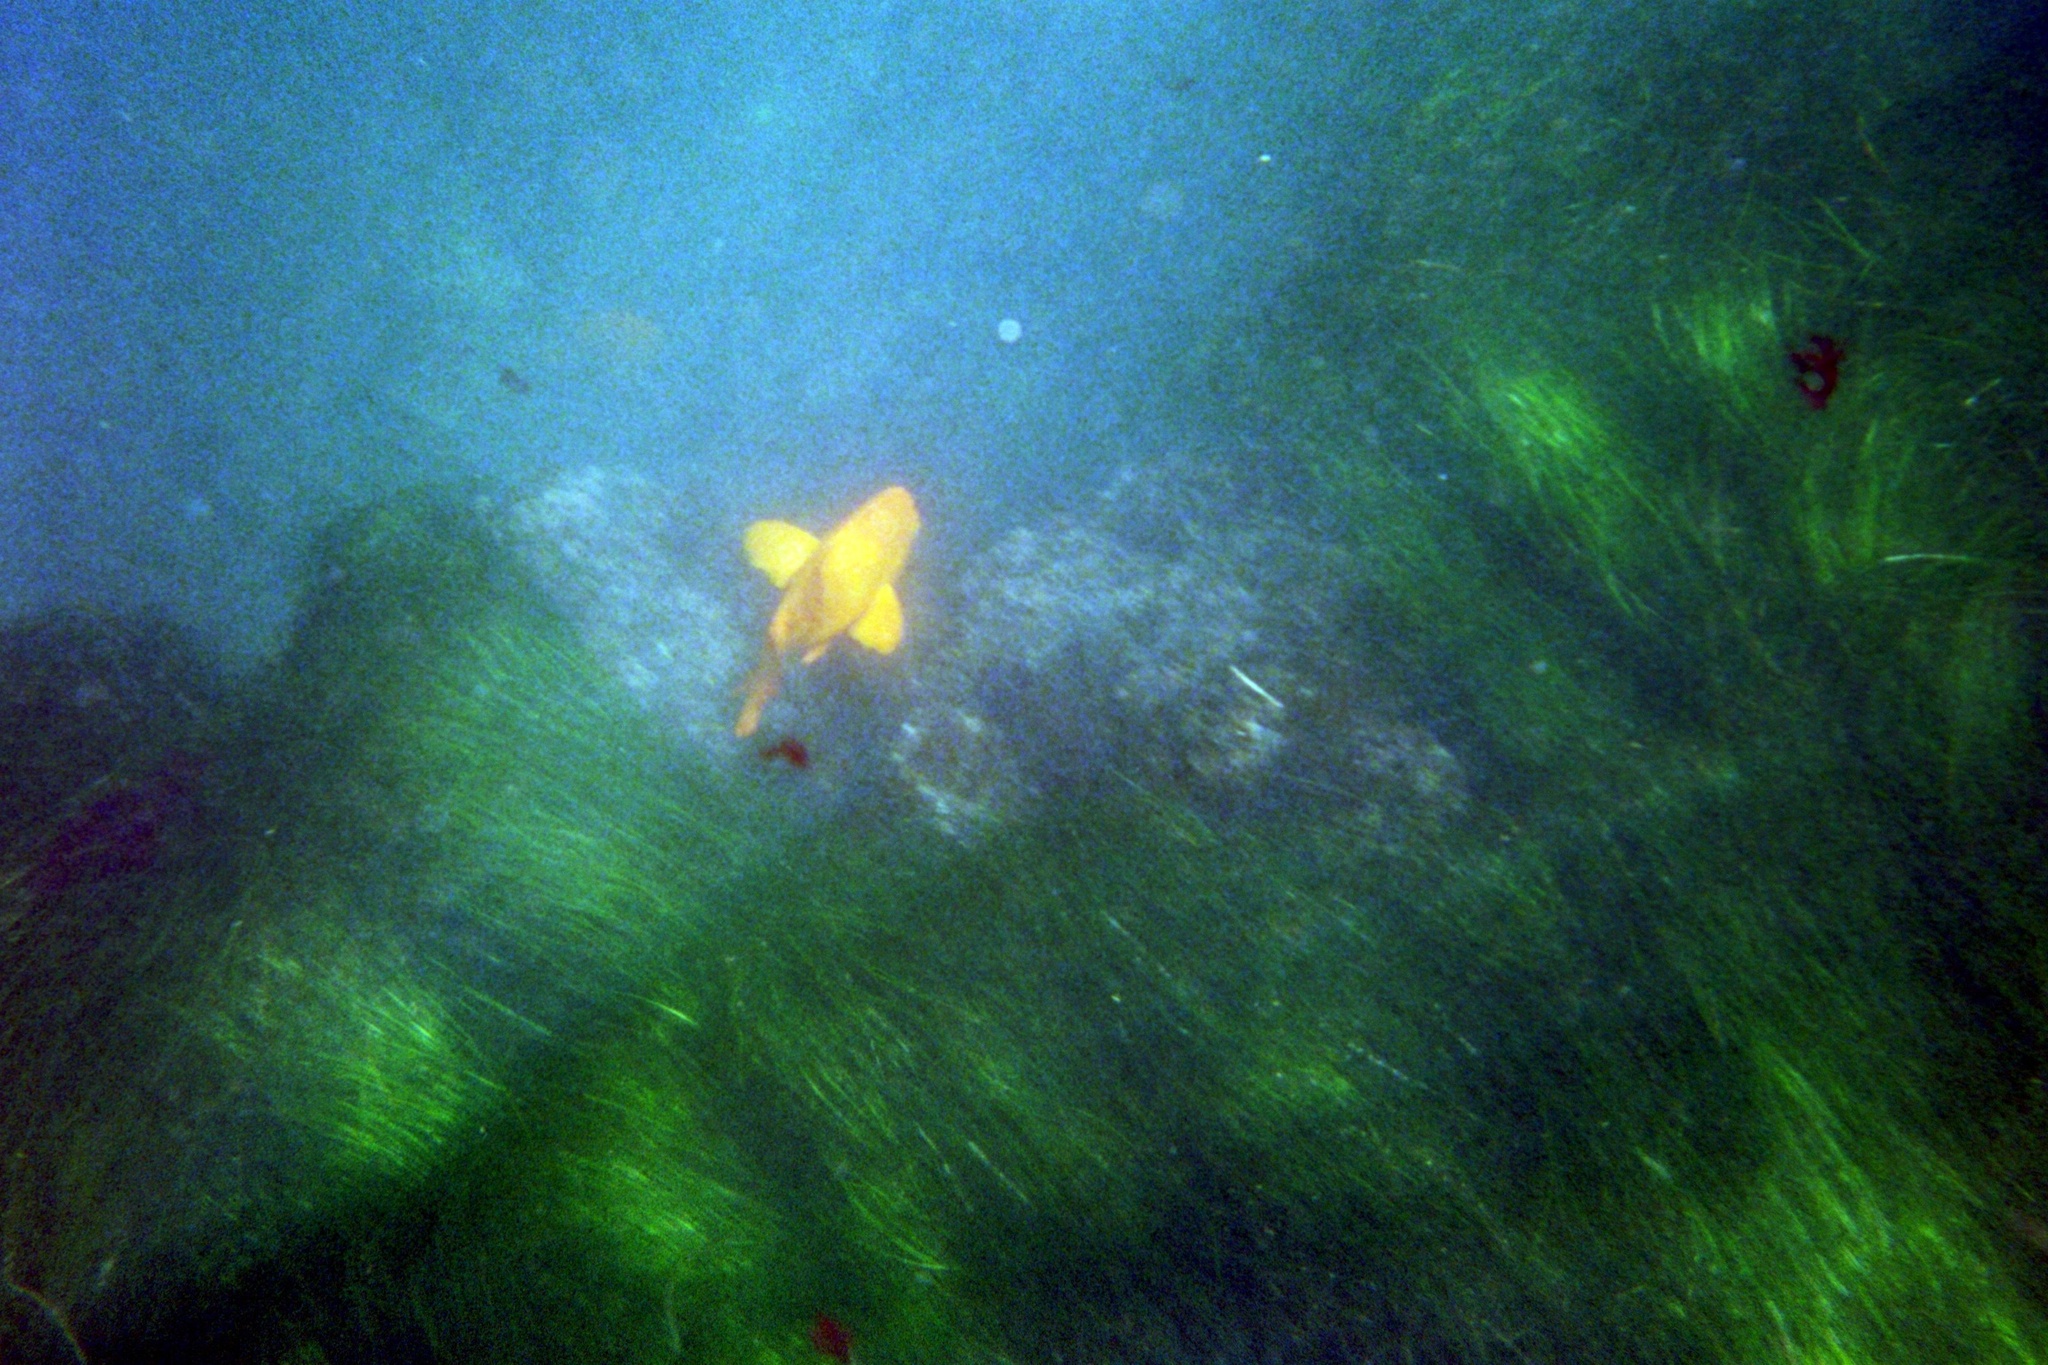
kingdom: Animalia
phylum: Chordata
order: Perciformes
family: Pomacentridae
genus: Hypsypops
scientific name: Hypsypops rubicundus
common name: Garibaldi
